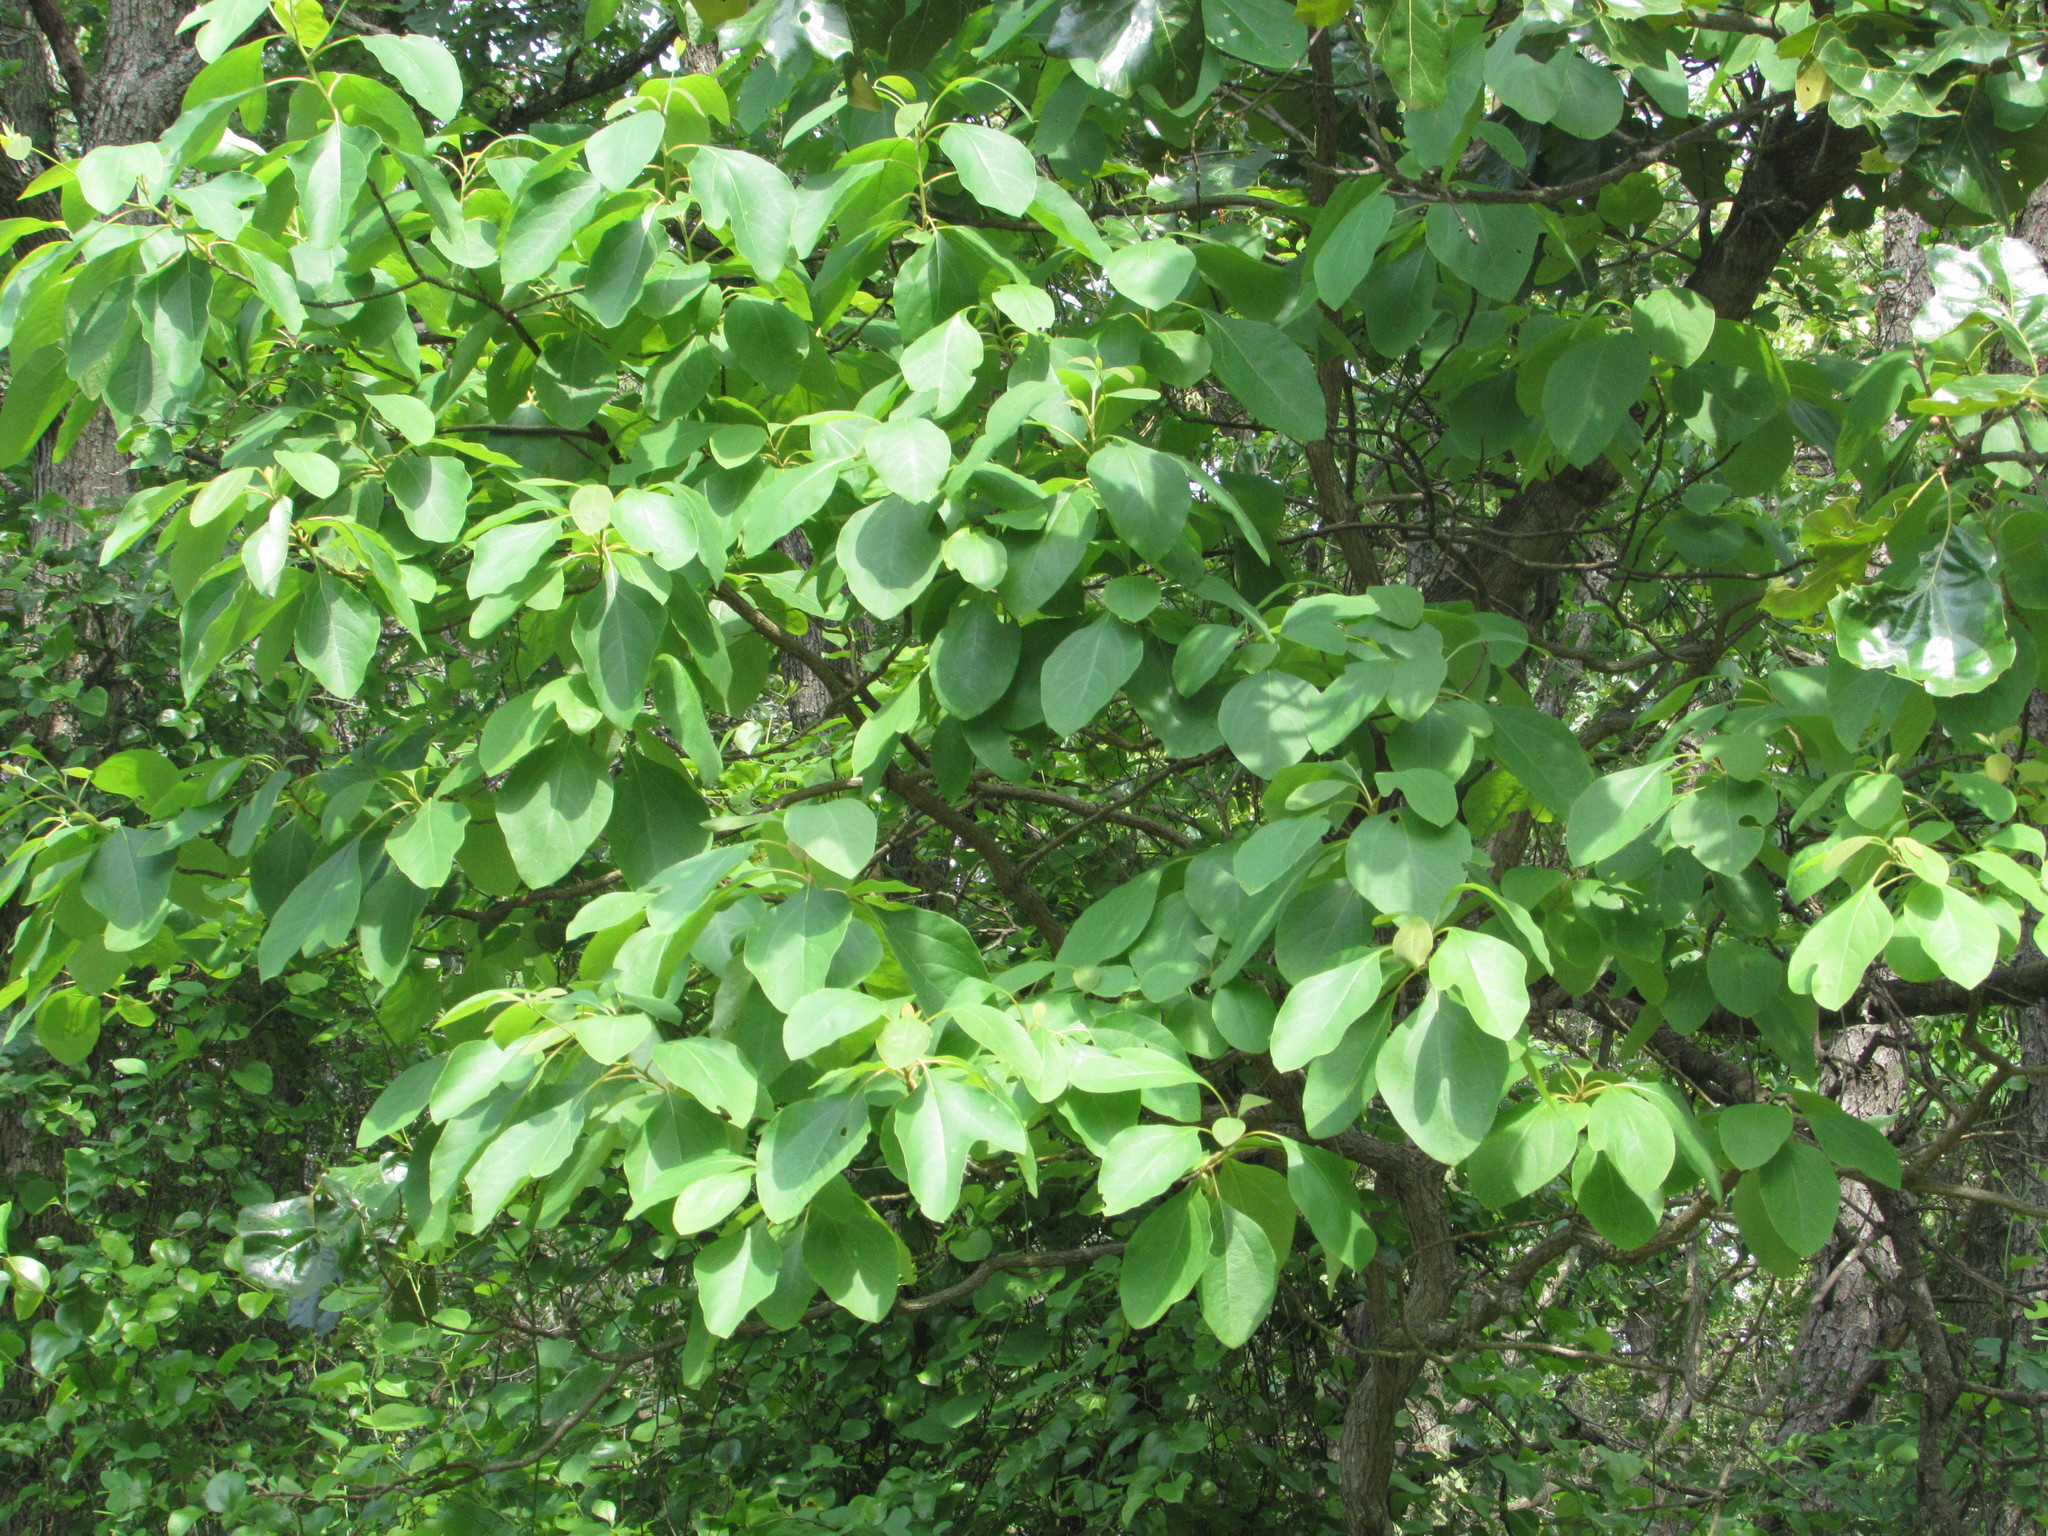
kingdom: Plantae
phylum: Tracheophyta
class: Magnoliopsida
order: Laurales
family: Lauraceae
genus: Sassafras
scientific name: Sassafras albidum
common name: Sassafras
